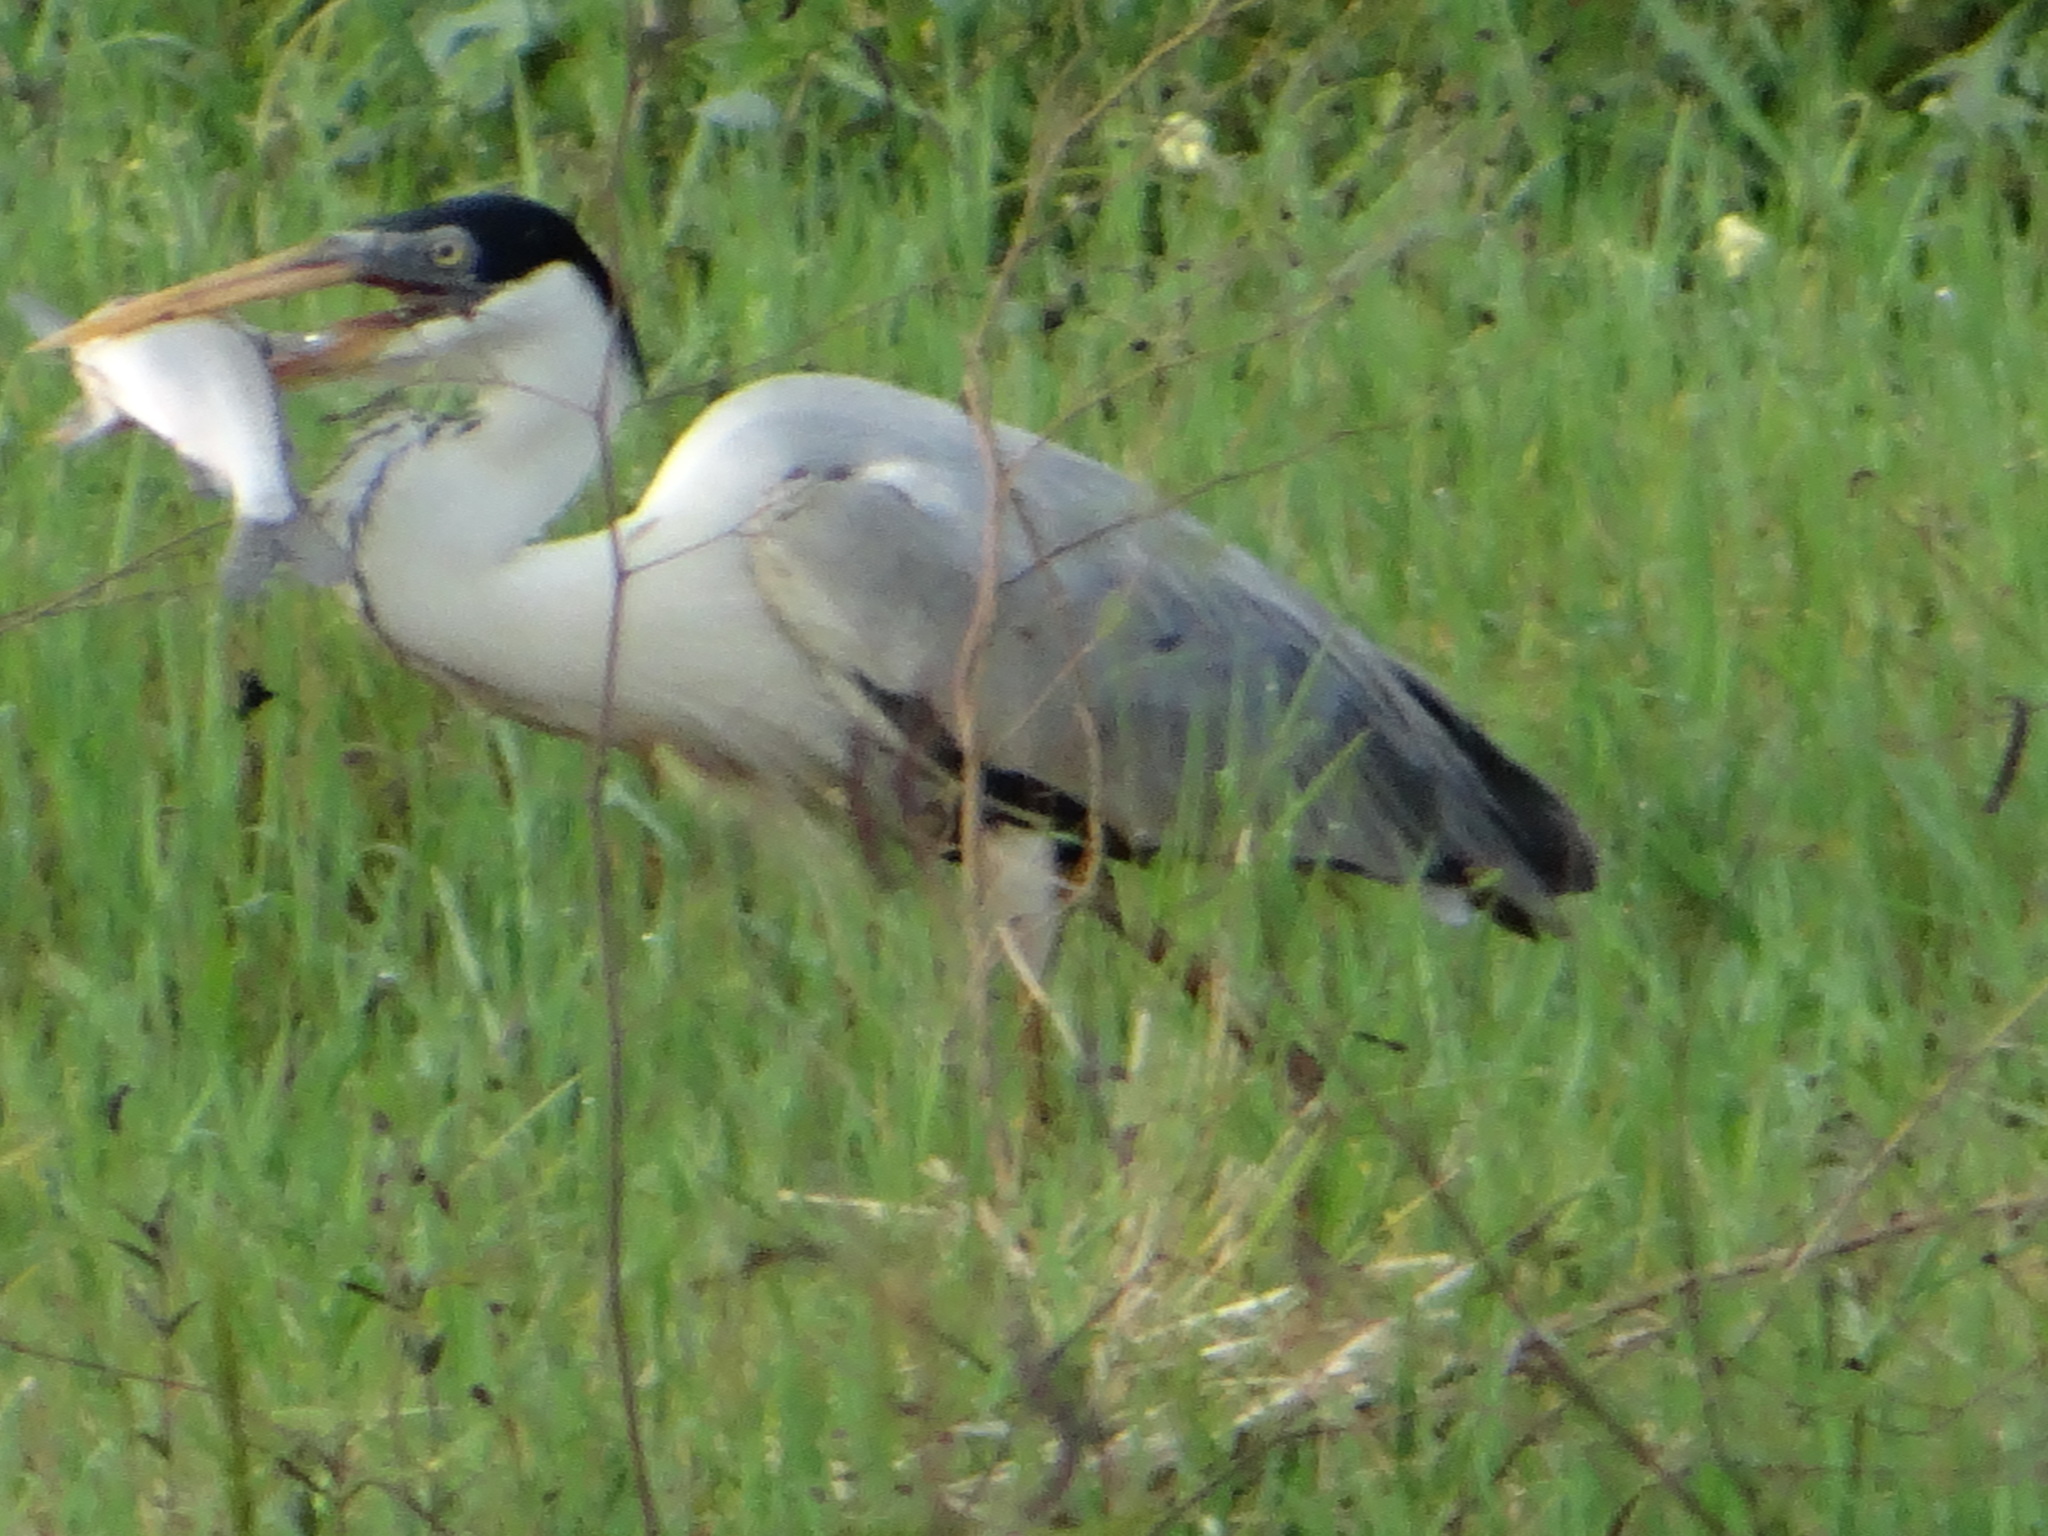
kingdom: Animalia
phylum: Chordata
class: Aves
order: Pelecaniformes
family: Ardeidae
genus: Ardea
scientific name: Ardea cocoi
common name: Cocoi heron
